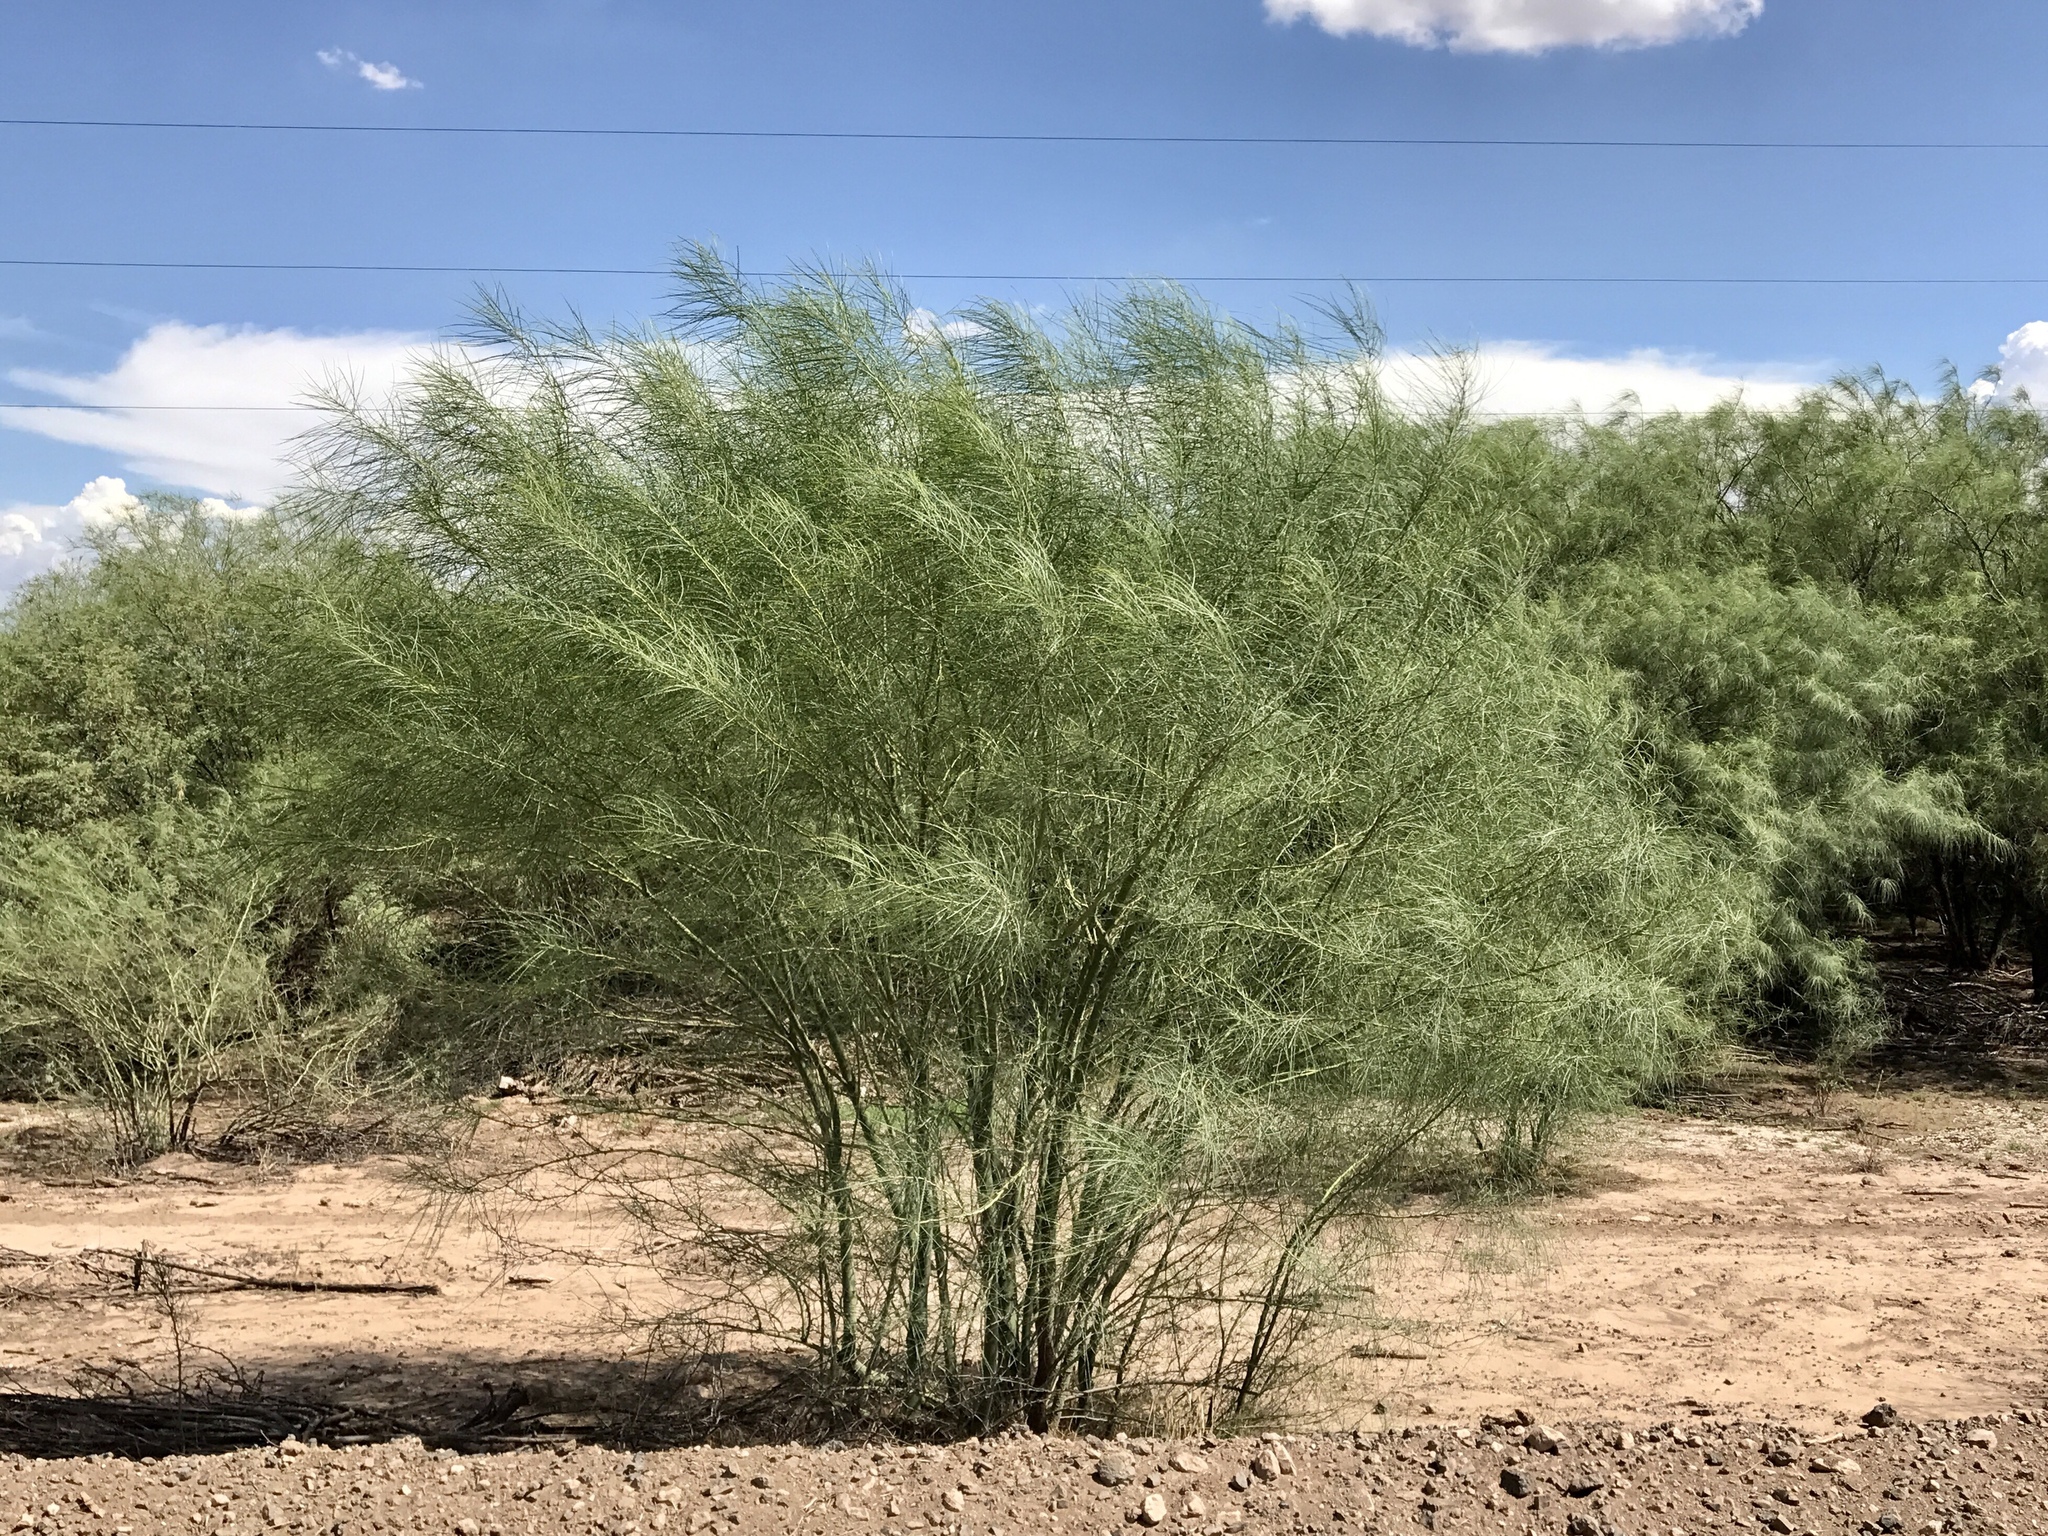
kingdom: Plantae
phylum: Tracheophyta
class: Magnoliopsida
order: Fabales
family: Fabaceae
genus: Parkinsonia
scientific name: Parkinsonia aculeata
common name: Jerusalem thorn
